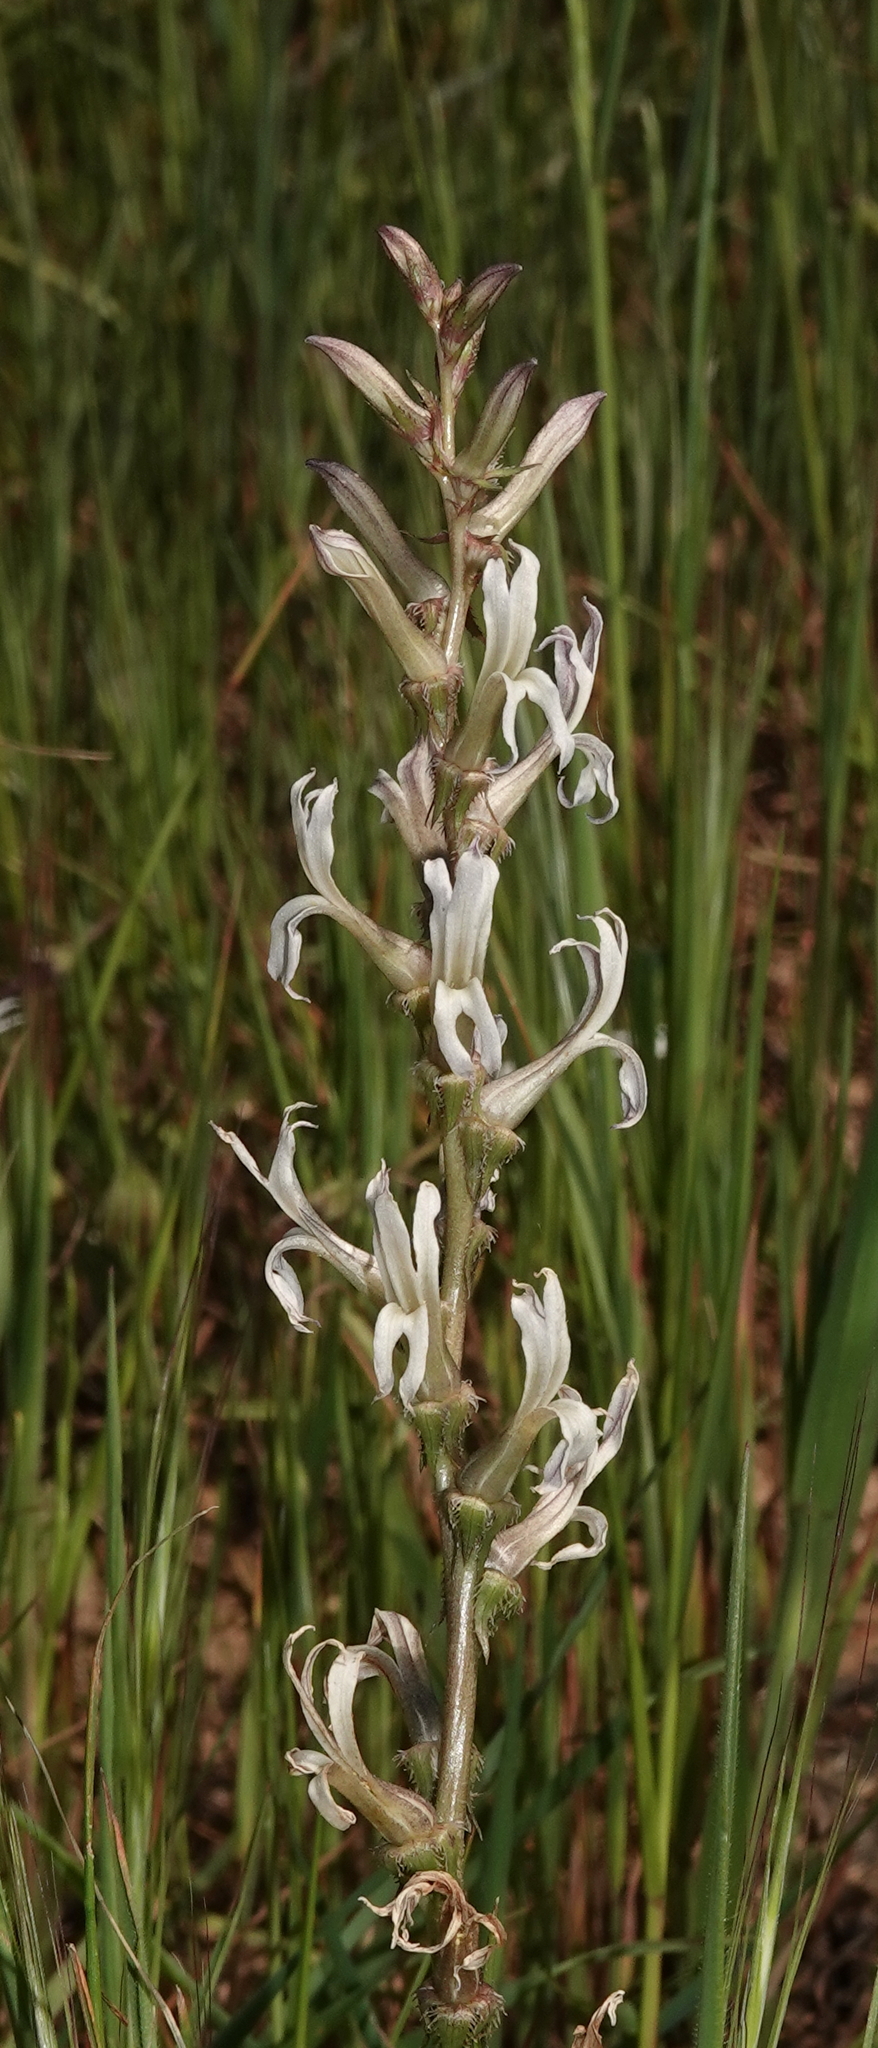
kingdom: Plantae
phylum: Tracheophyta
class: Magnoliopsida
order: Asterales
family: Campanulaceae
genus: Cyphia
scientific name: Cyphia phyteuma
